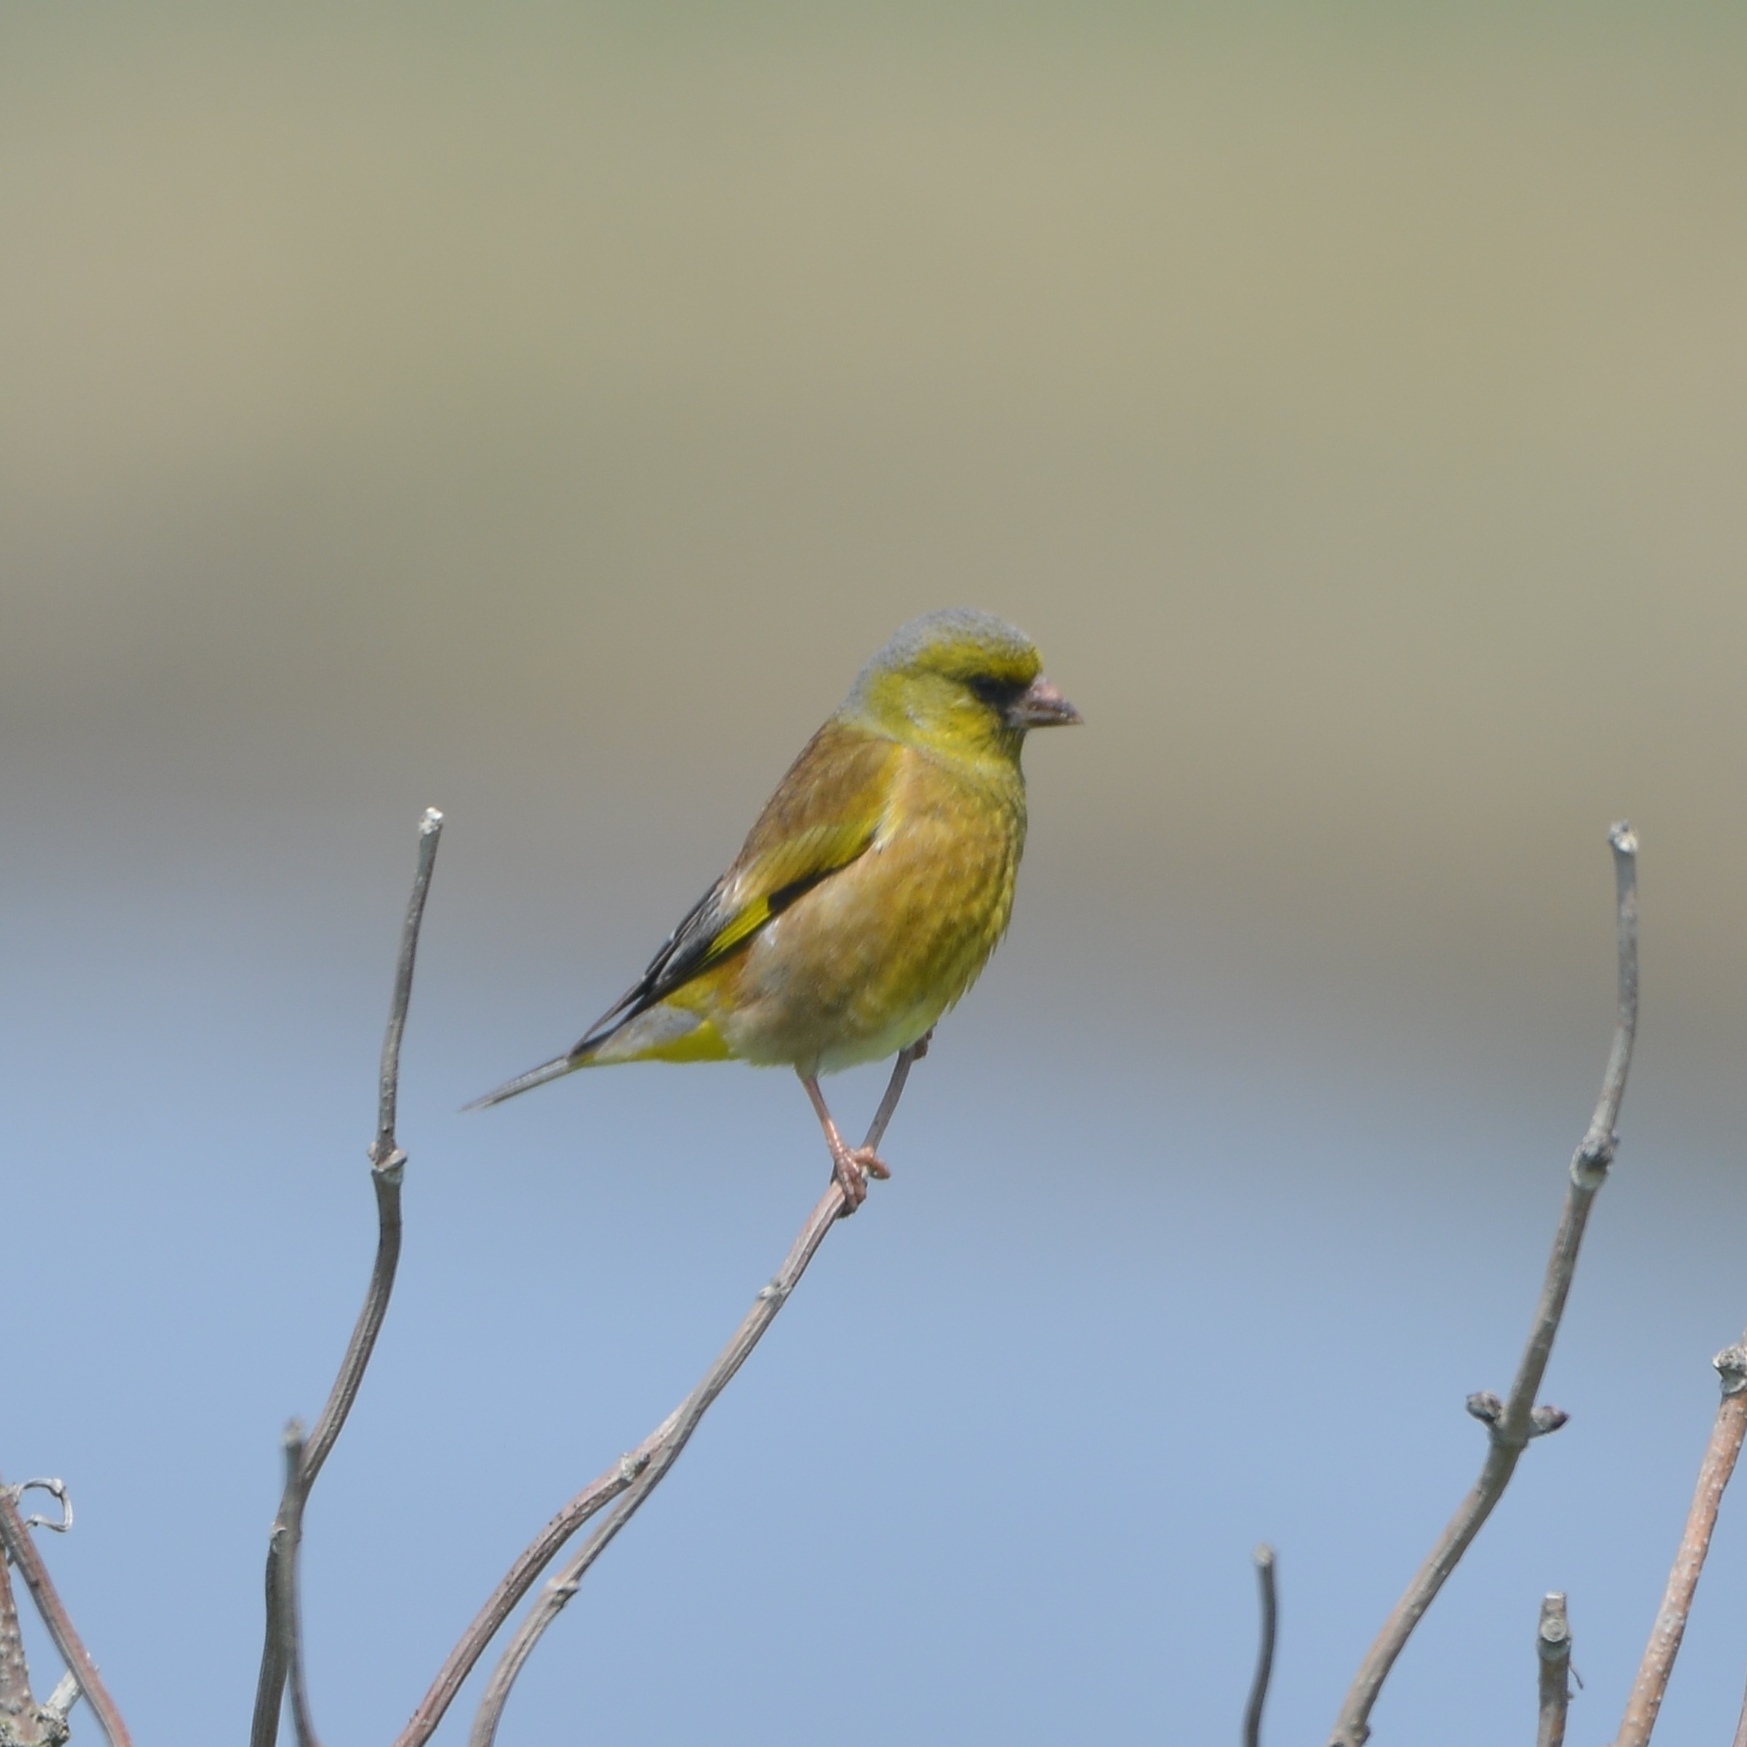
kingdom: Plantae
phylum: Tracheophyta
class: Liliopsida
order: Poales
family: Poaceae
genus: Chloris
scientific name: Chloris sinica
